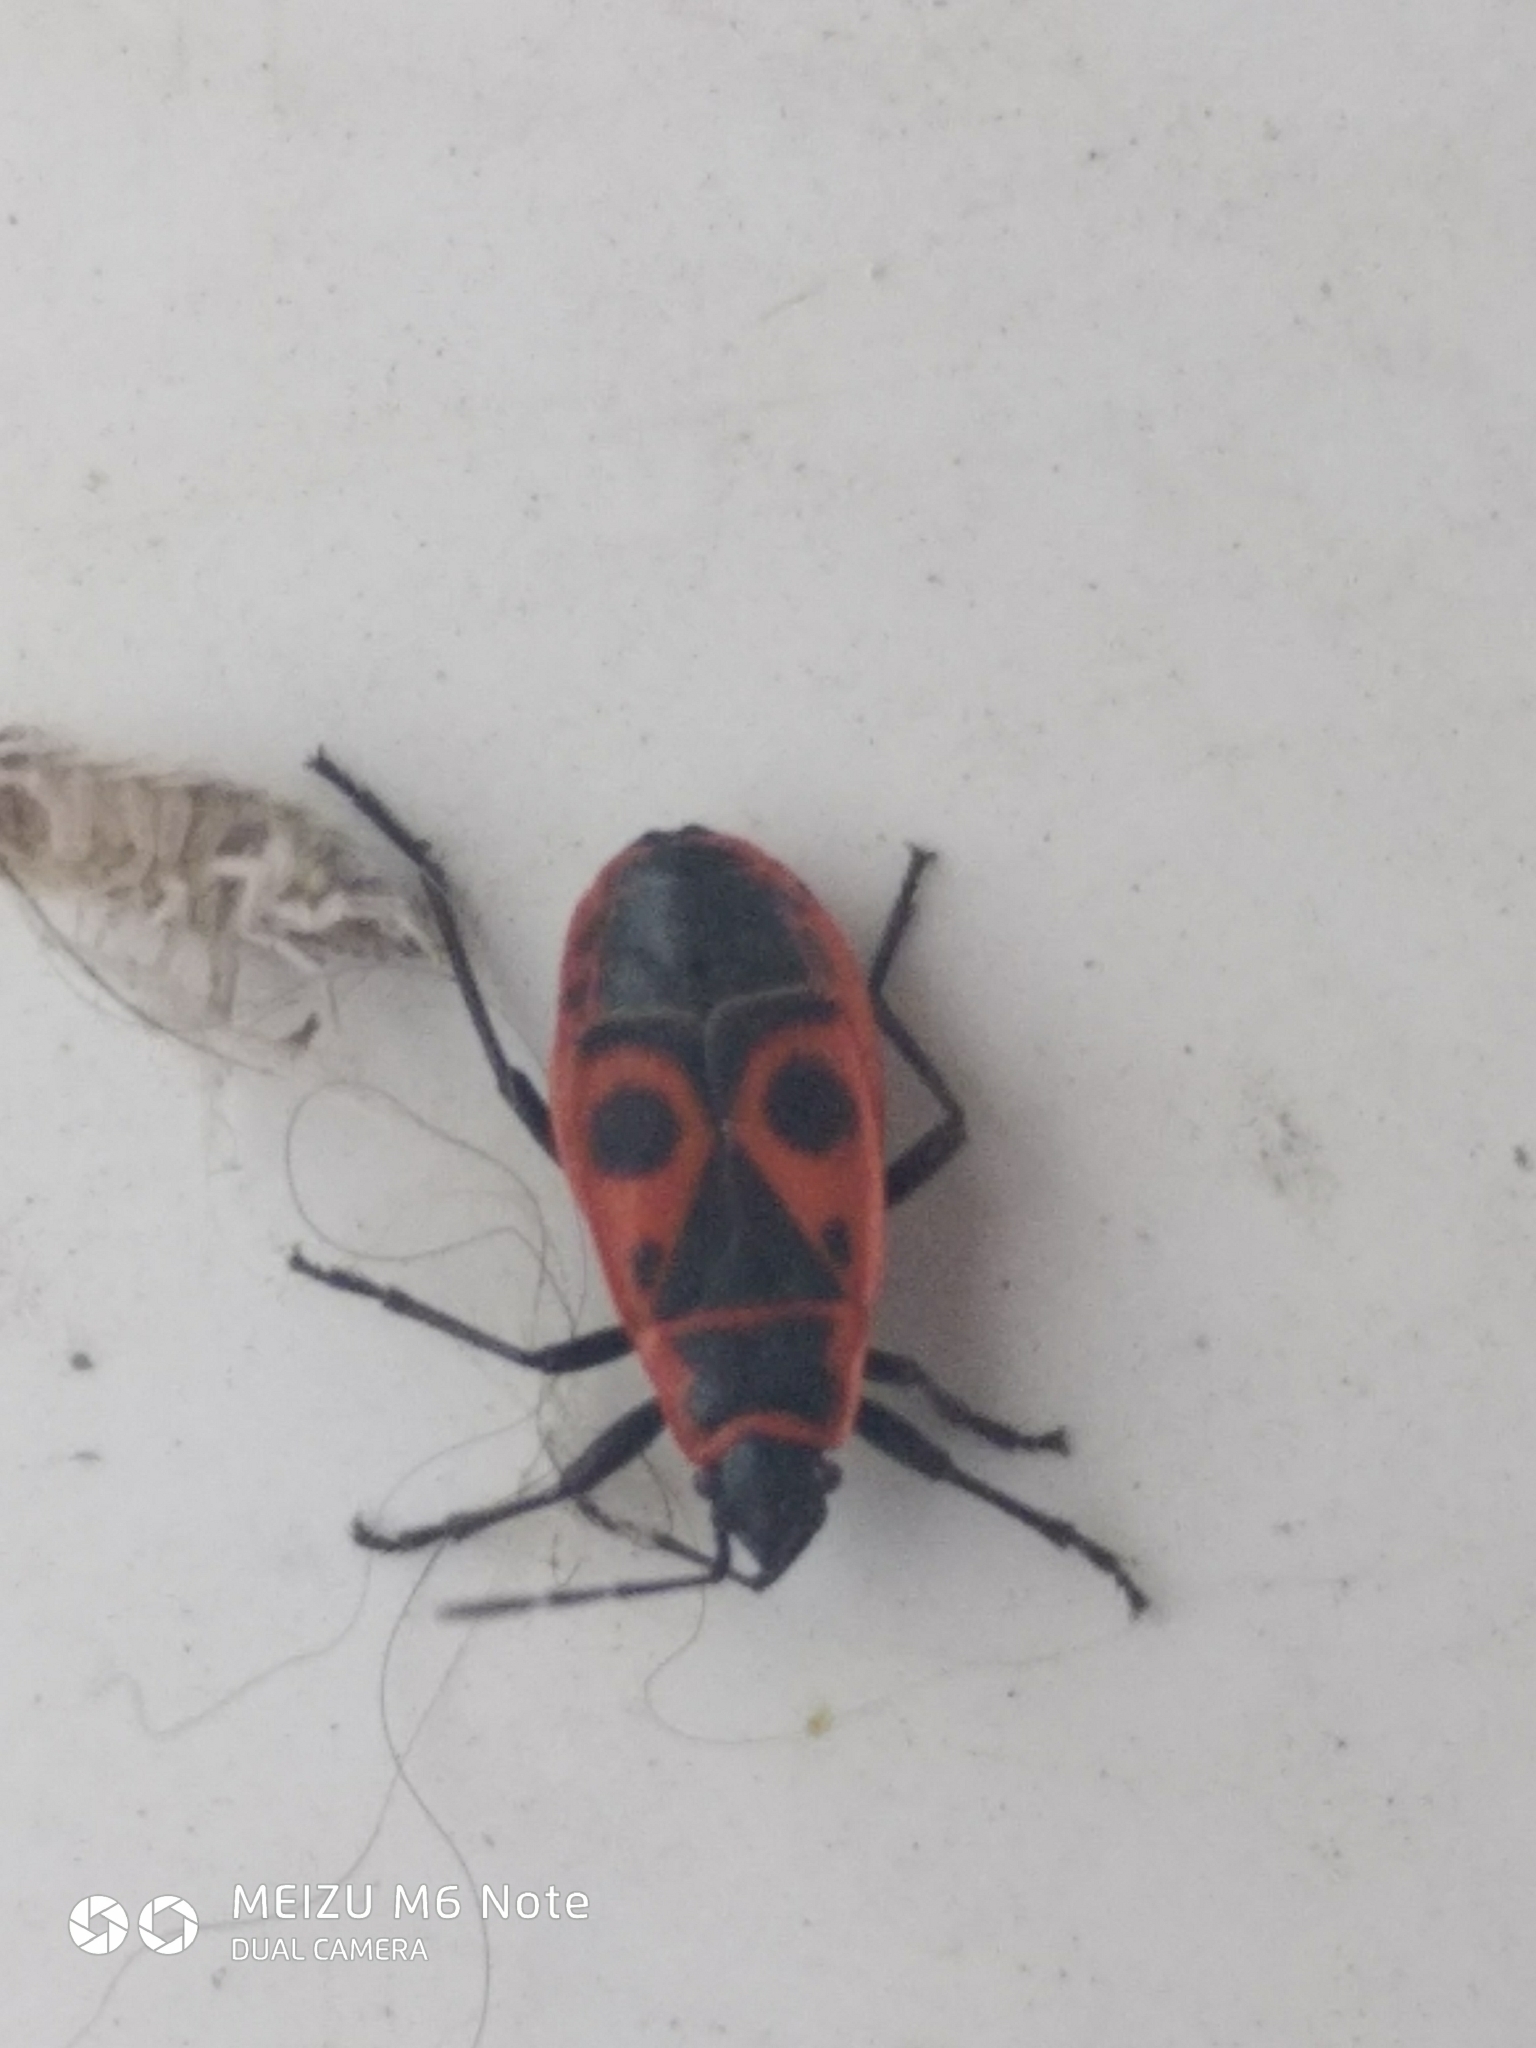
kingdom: Animalia
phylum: Arthropoda
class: Insecta
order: Hemiptera
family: Pyrrhocoridae
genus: Pyrrhocoris
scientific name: Pyrrhocoris apterus
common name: Firebug
